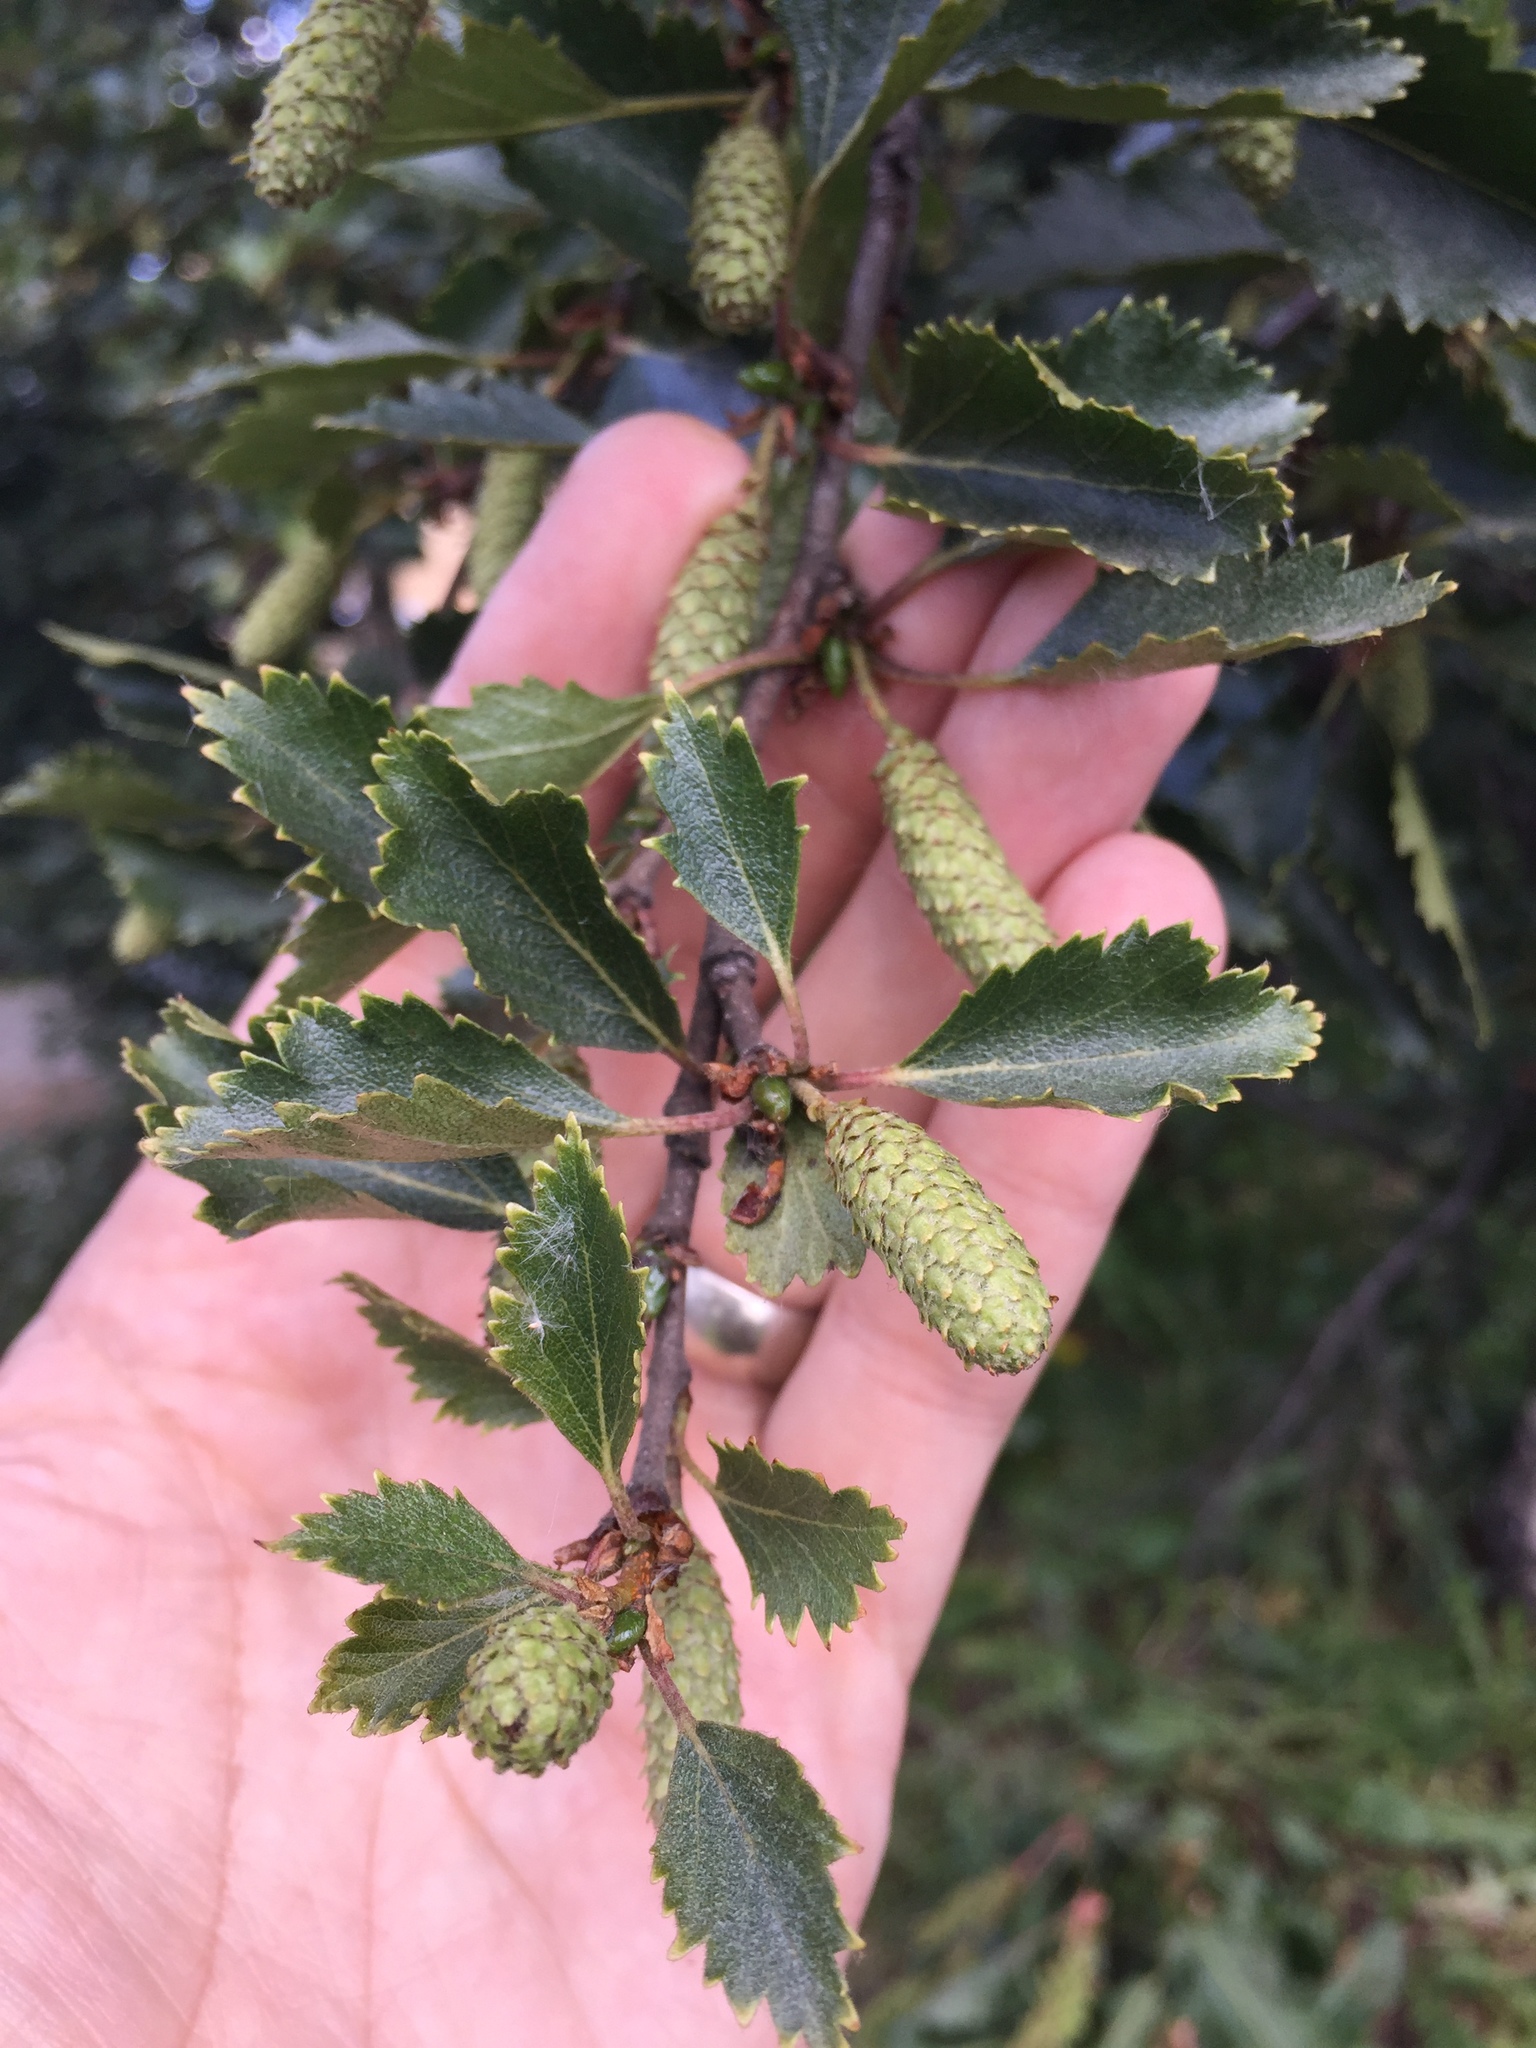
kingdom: Plantae
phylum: Tracheophyta
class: Magnoliopsida
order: Fagales
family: Betulaceae
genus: Betula
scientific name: Betula pubescens
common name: Downy birch
